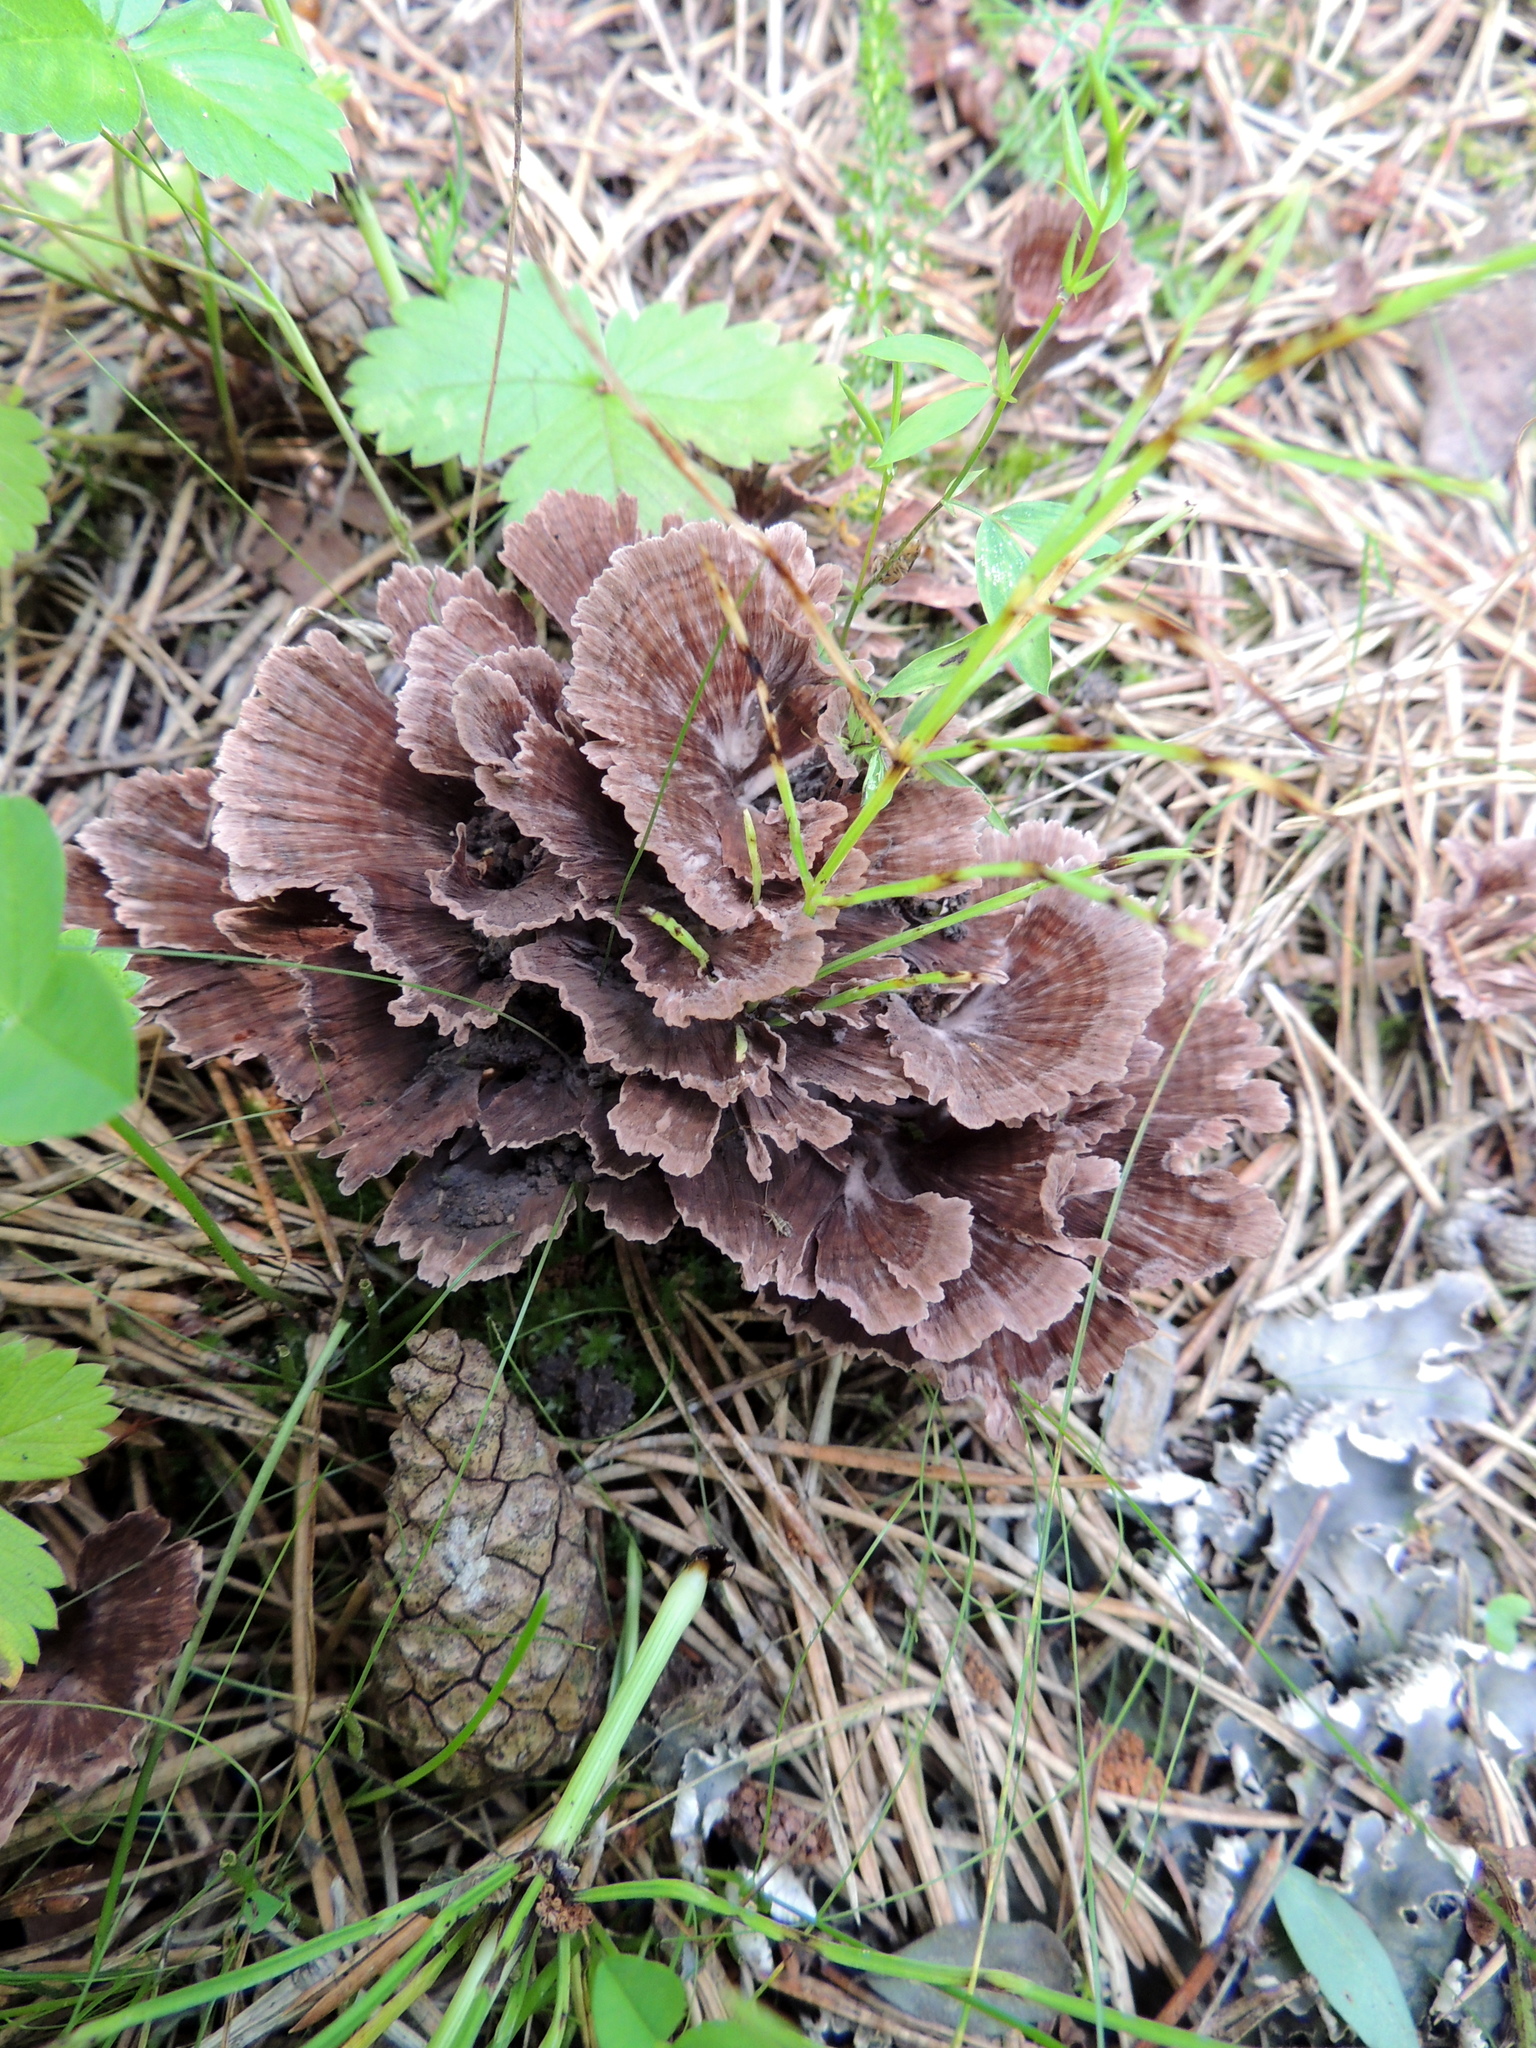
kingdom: Fungi
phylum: Basidiomycota
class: Agaricomycetes
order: Thelephorales
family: Thelephoraceae
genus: Thelephora
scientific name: Thelephora caryophyllea
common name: Carnation earthfan
